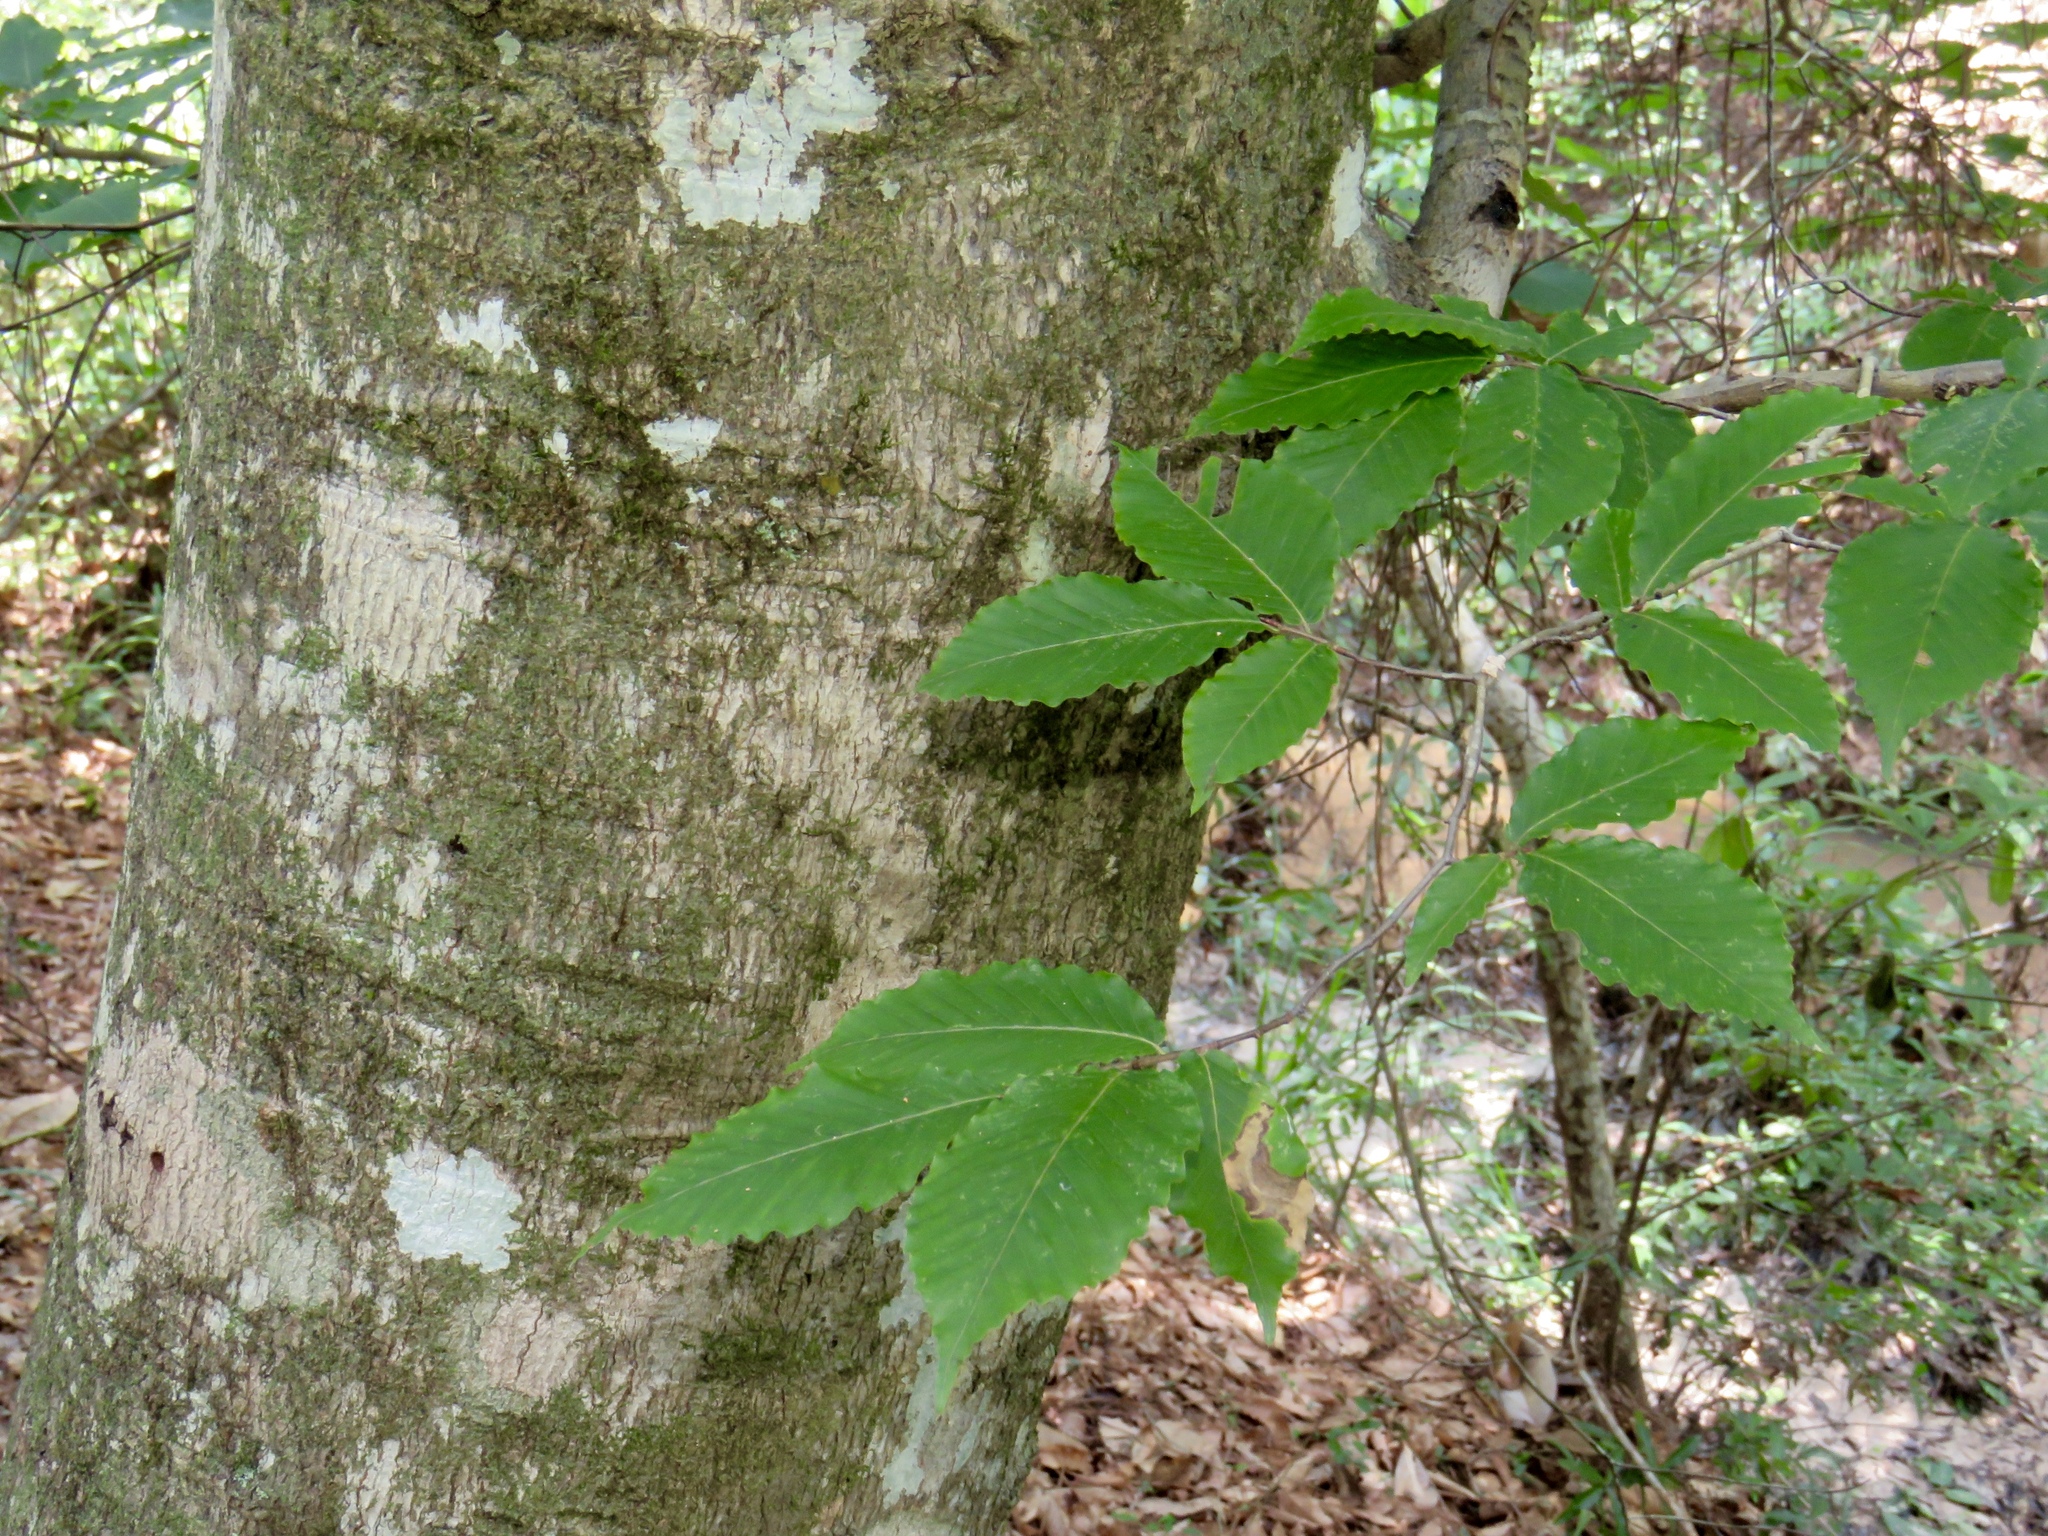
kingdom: Plantae
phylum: Tracheophyta
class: Magnoliopsida
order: Fagales
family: Fagaceae
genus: Fagus
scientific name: Fagus grandifolia
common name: American beech
